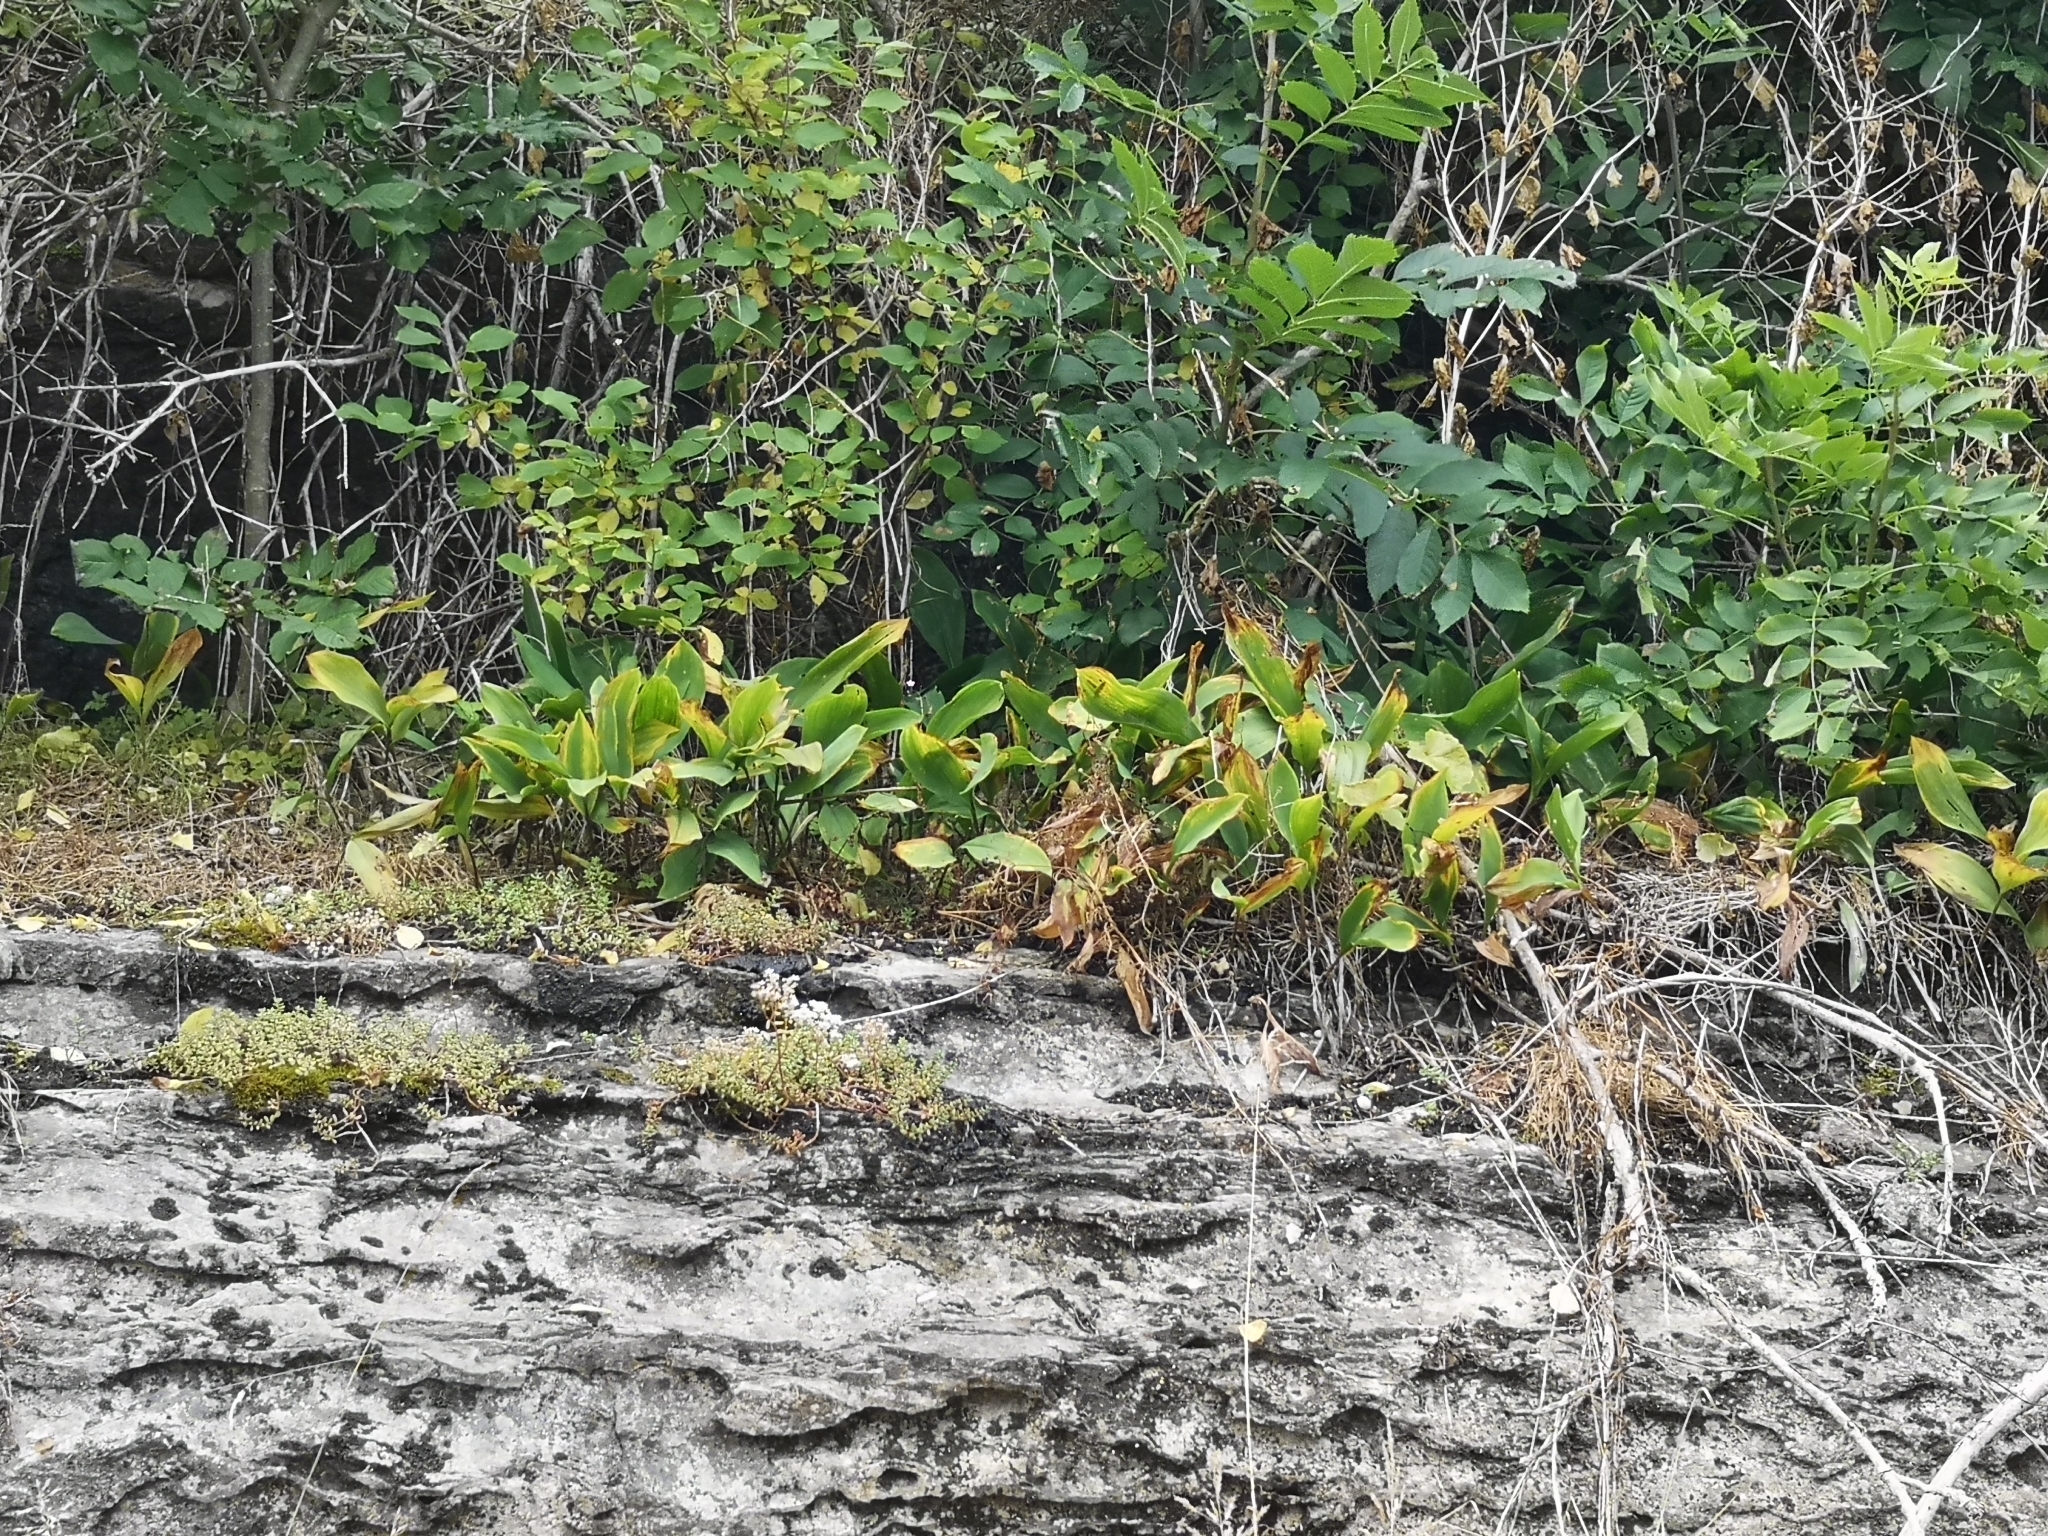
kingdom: Plantae
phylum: Tracheophyta
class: Liliopsida
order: Asparagales
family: Asparagaceae
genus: Convallaria
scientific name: Convallaria majalis
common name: Lily-of-the-valley
